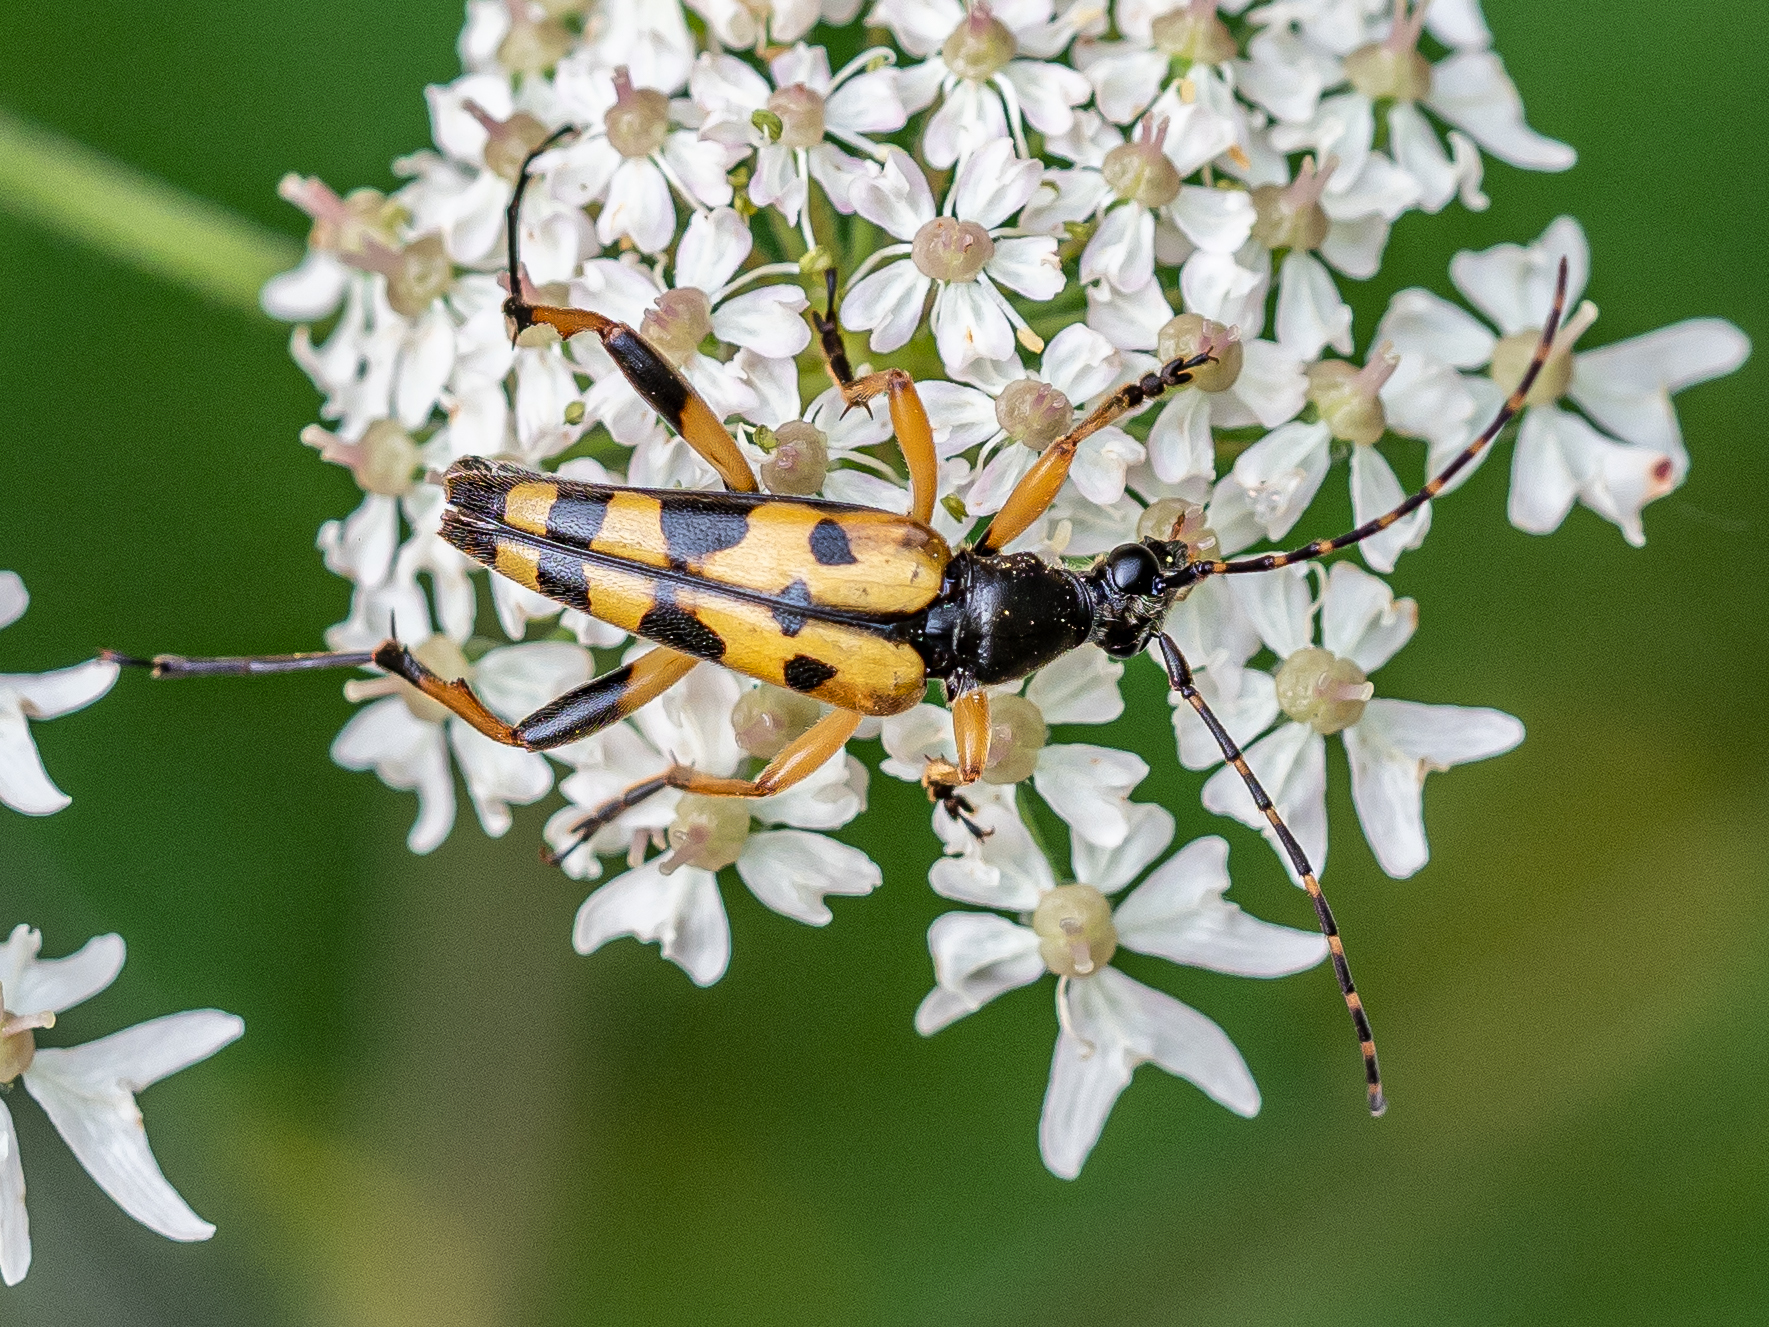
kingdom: Animalia
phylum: Arthropoda
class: Insecta
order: Coleoptera
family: Cerambycidae
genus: Rutpela
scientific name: Rutpela maculata
